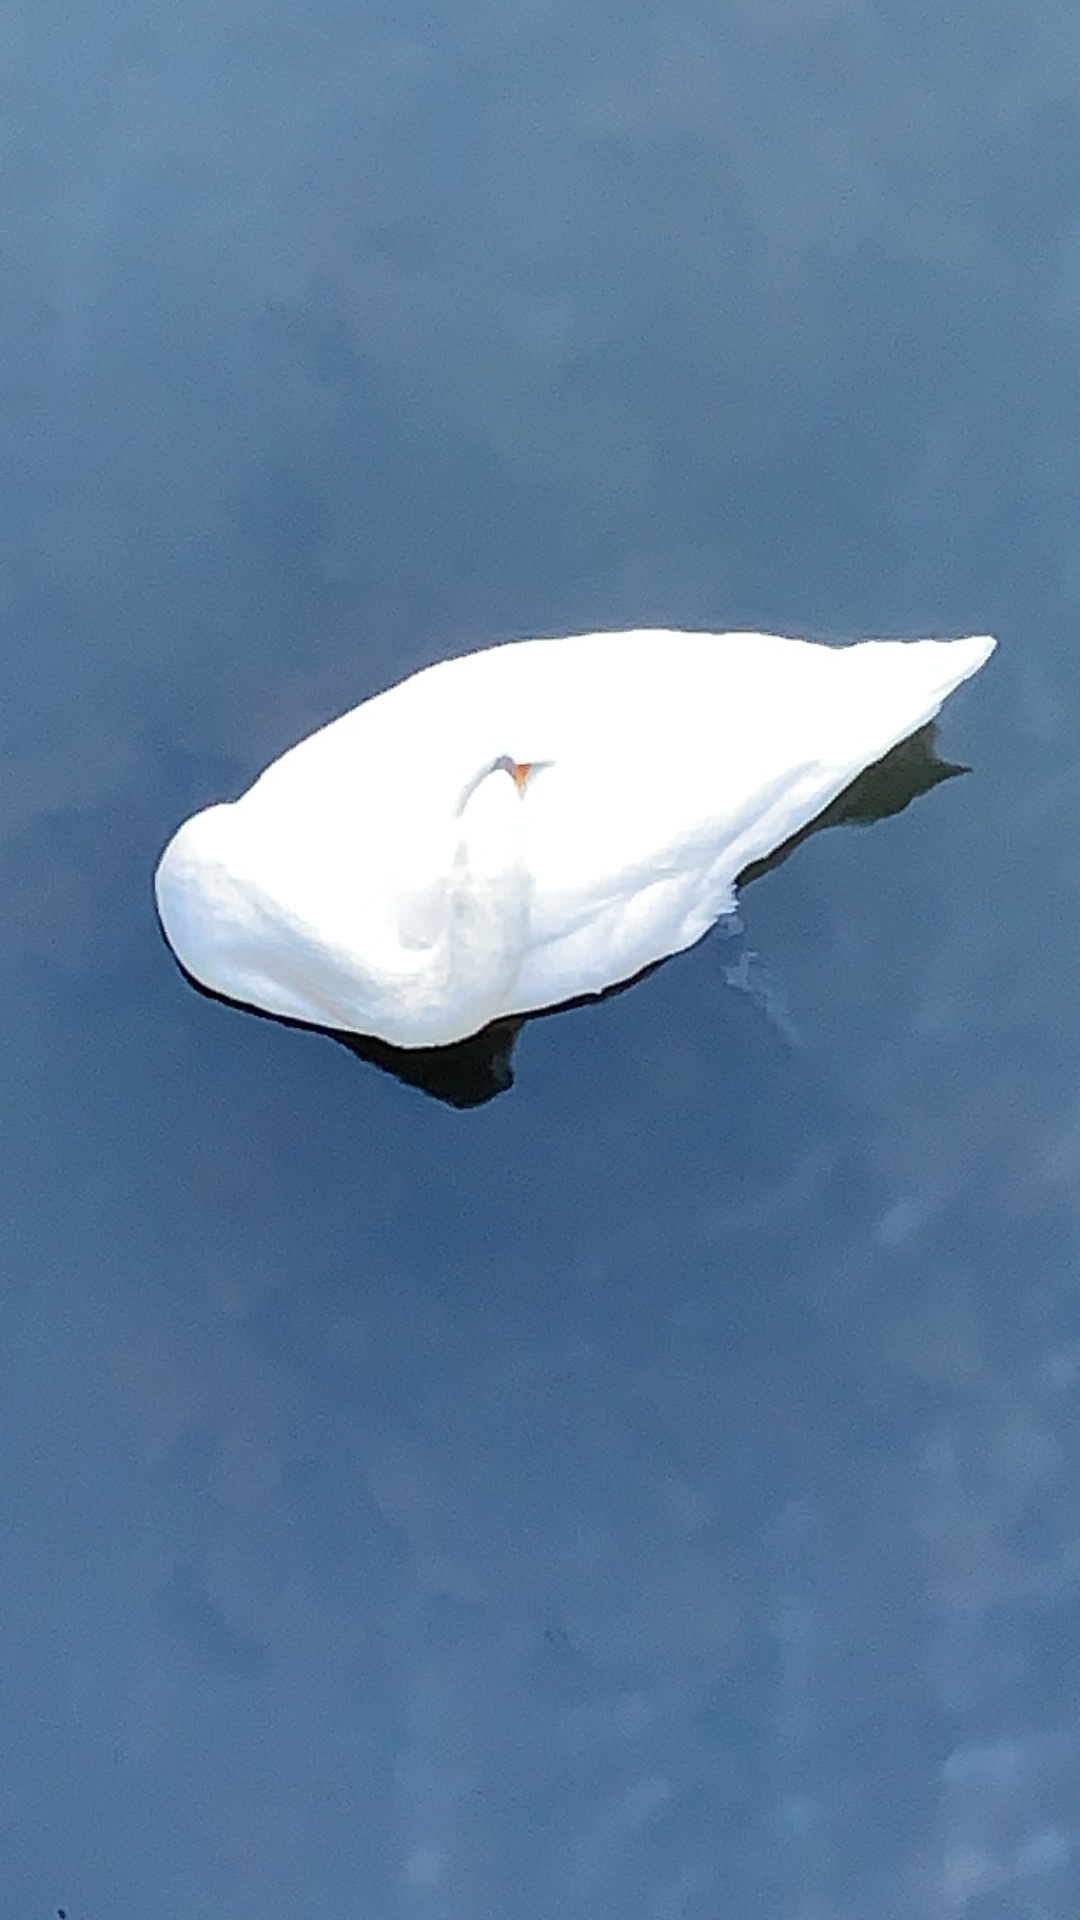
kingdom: Animalia
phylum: Chordata
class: Aves
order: Anseriformes
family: Anatidae
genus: Cygnus
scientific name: Cygnus olor
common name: Mute swan
